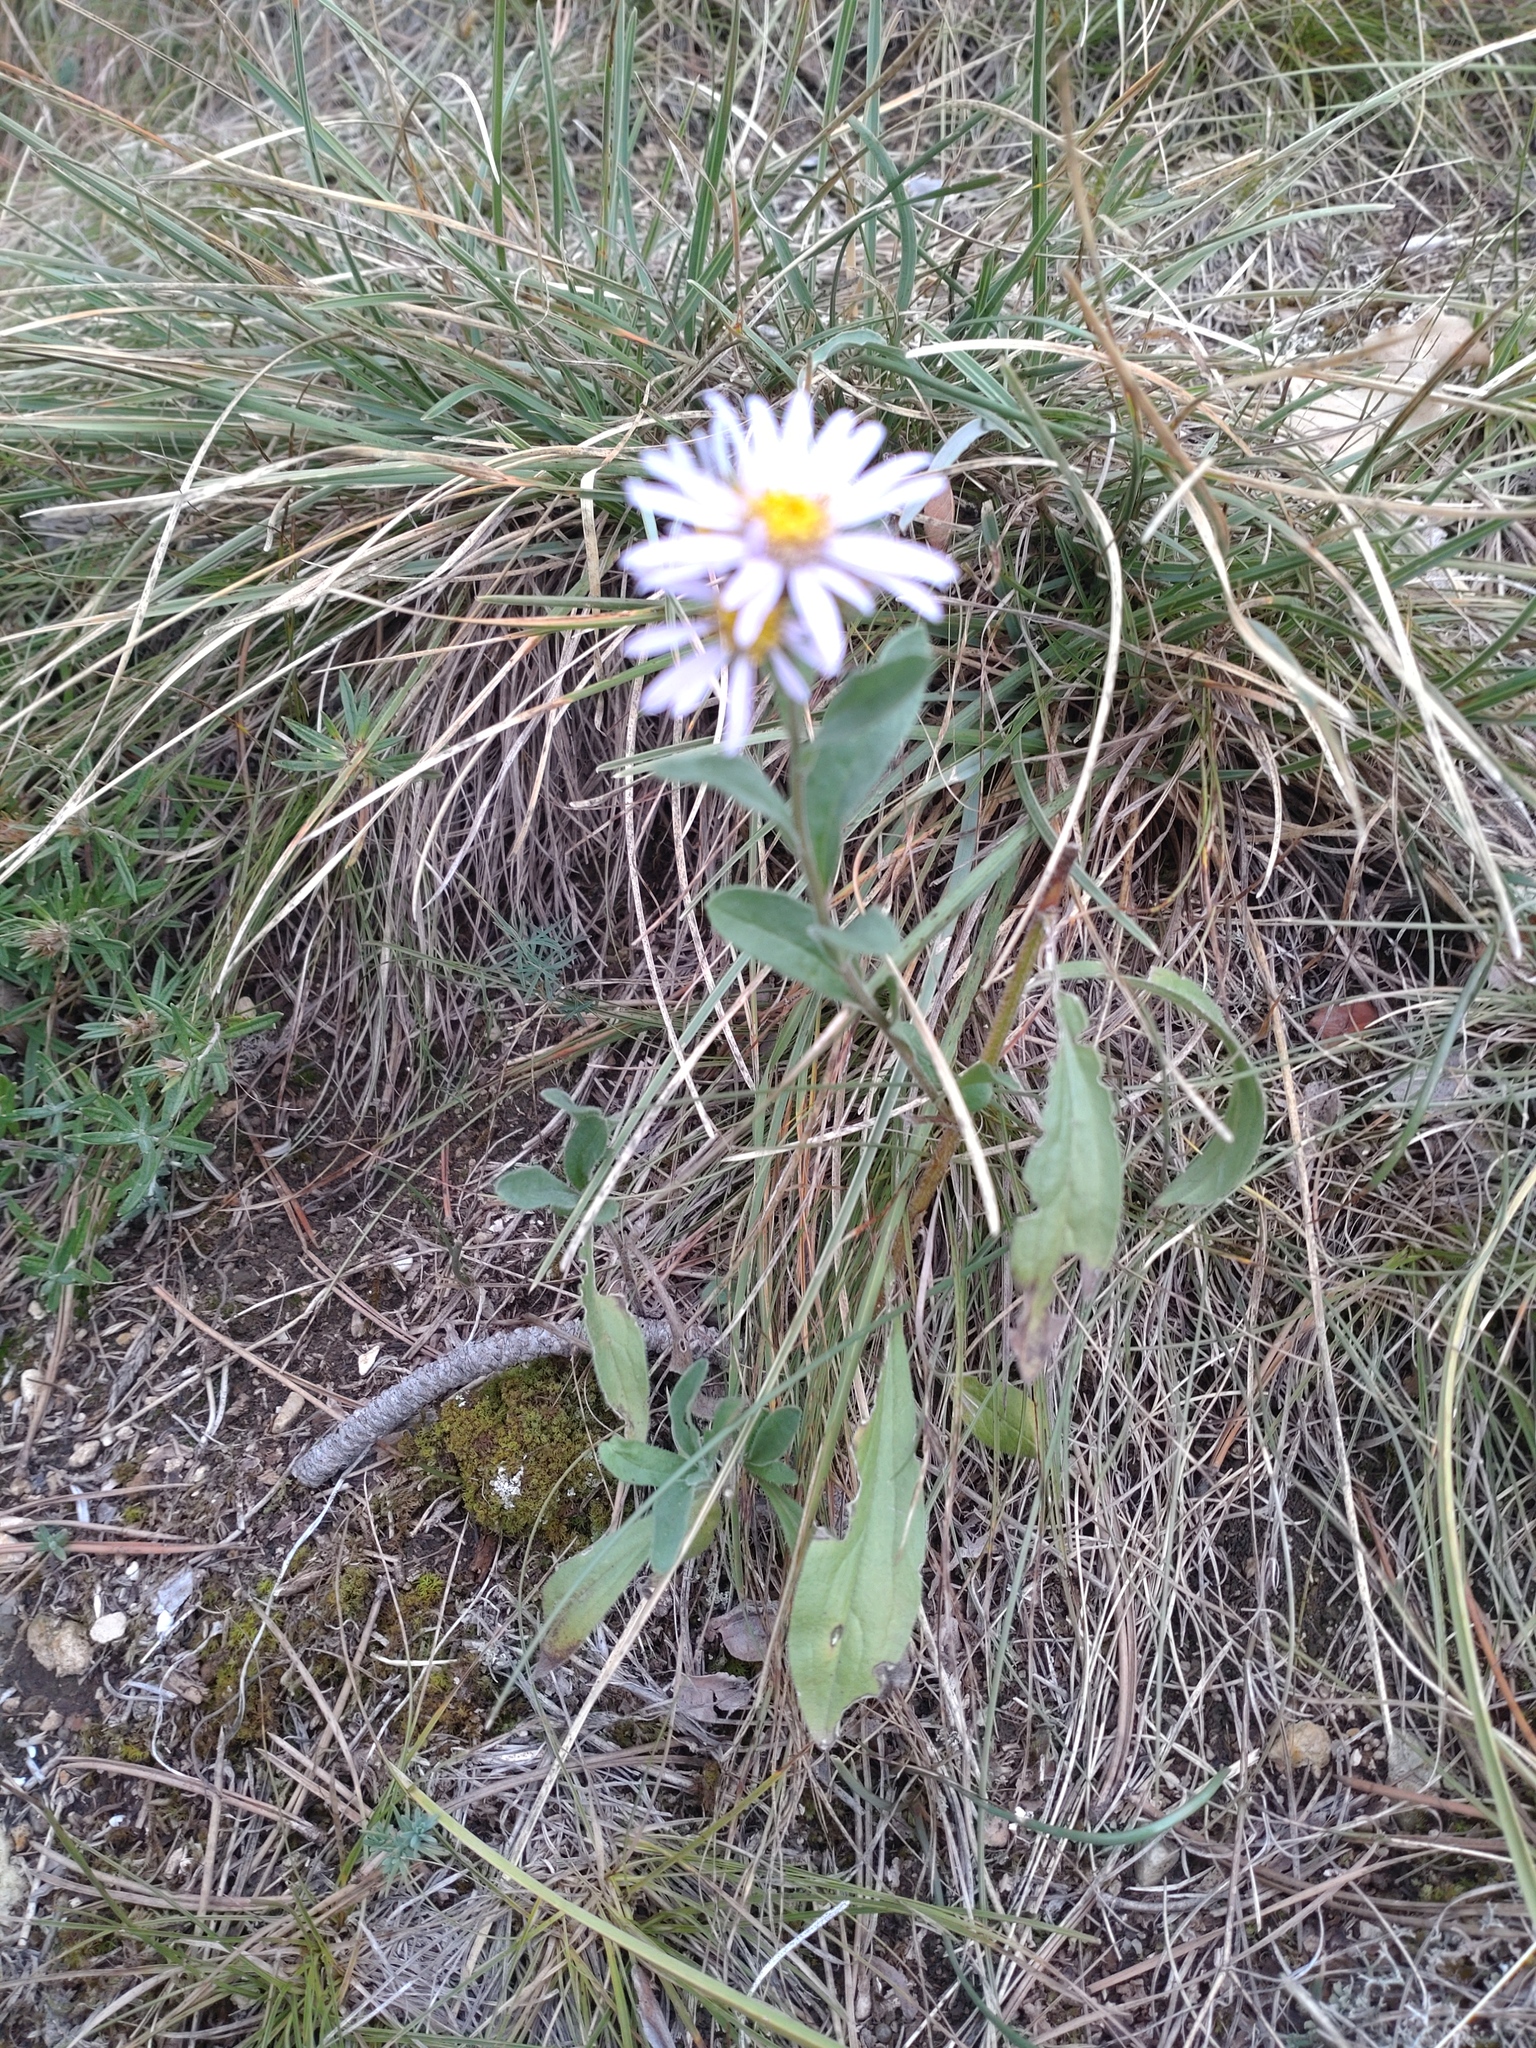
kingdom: Plantae
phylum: Tracheophyta
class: Magnoliopsida
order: Asterales
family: Asteraceae
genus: Aster
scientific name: Aster amellus
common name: European michaelmas daisy
